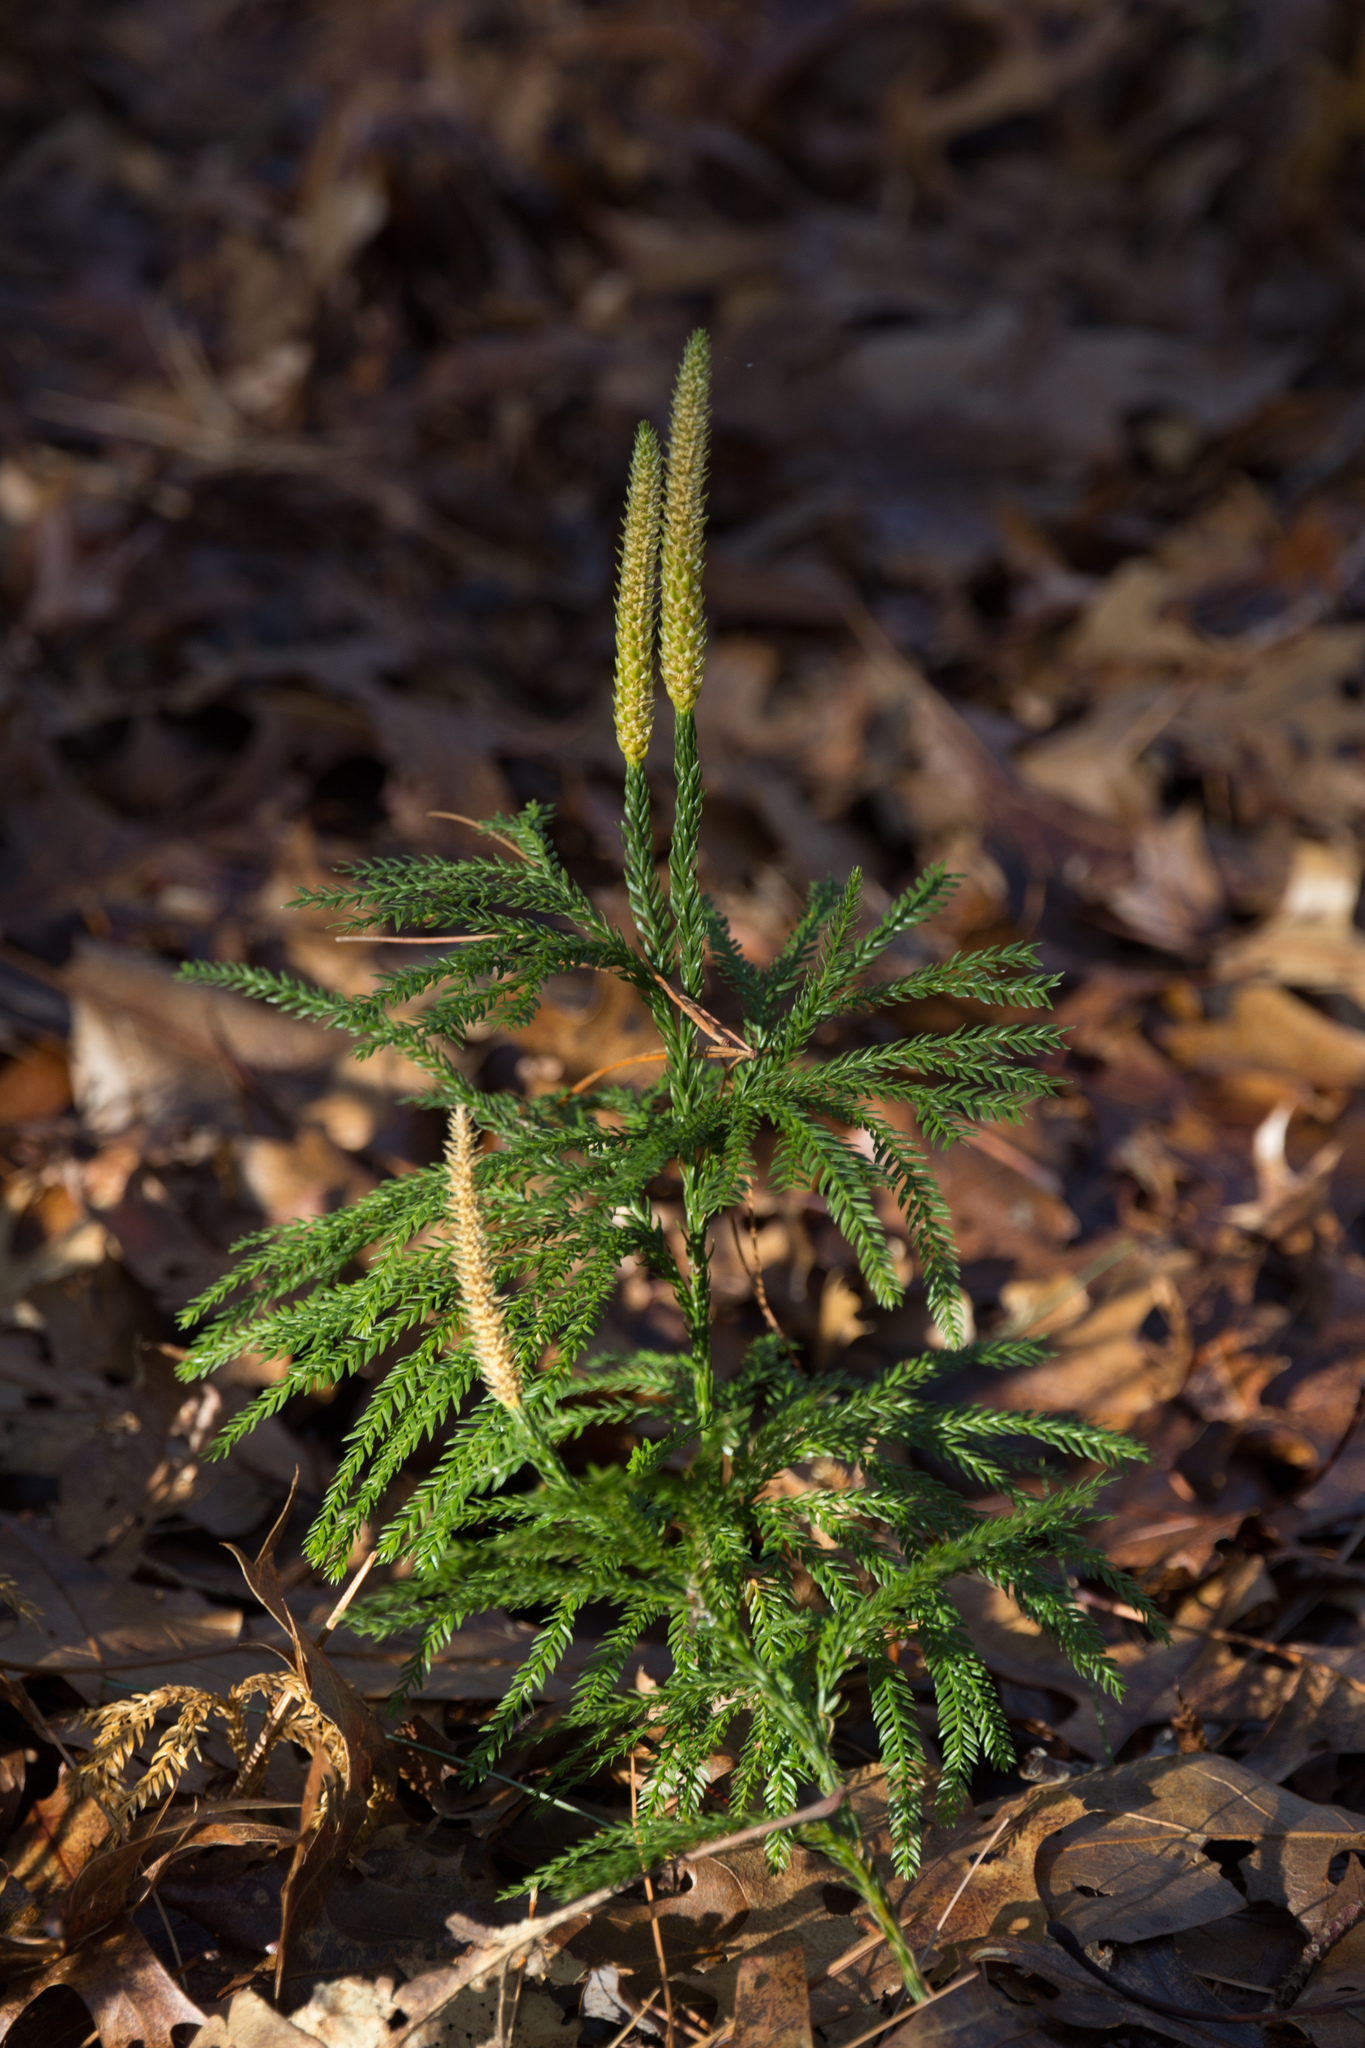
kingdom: Plantae
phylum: Tracheophyta
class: Lycopodiopsida
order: Lycopodiales
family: Lycopodiaceae
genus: Dendrolycopodium
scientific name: Dendrolycopodium obscurum
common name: Common ground-pine
